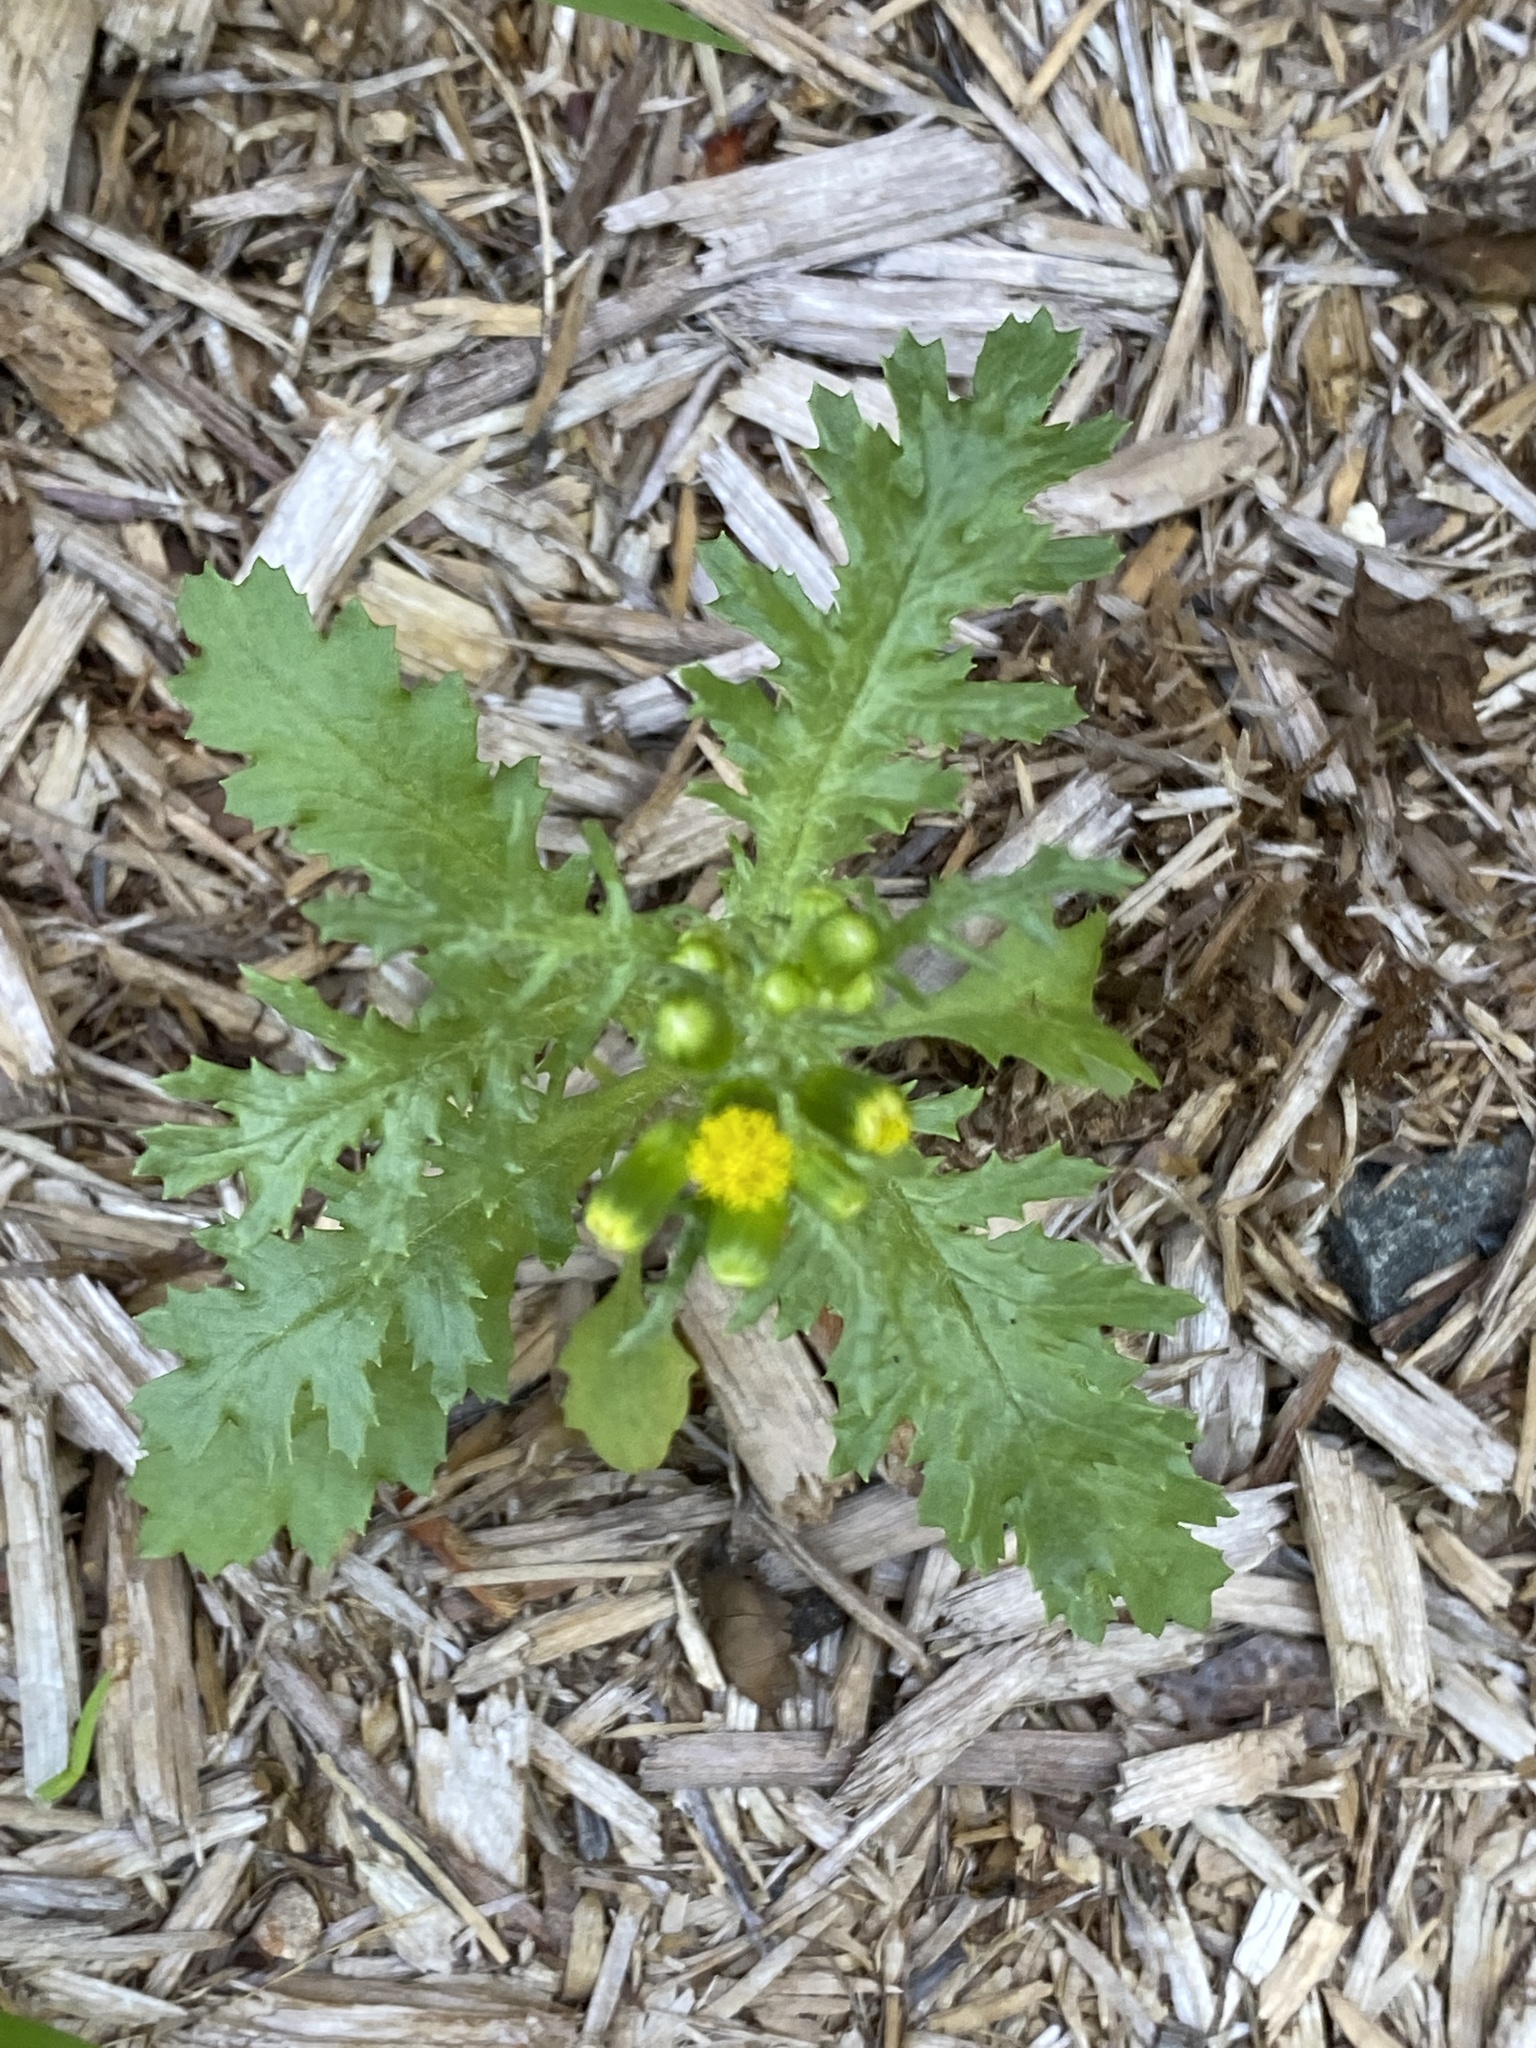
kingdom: Plantae
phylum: Tracheophyta
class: Magnoliopsida
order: Asterales
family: Asteraceae
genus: Senecio
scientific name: Senecio vulgaris
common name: Old-man-in-the-spring
